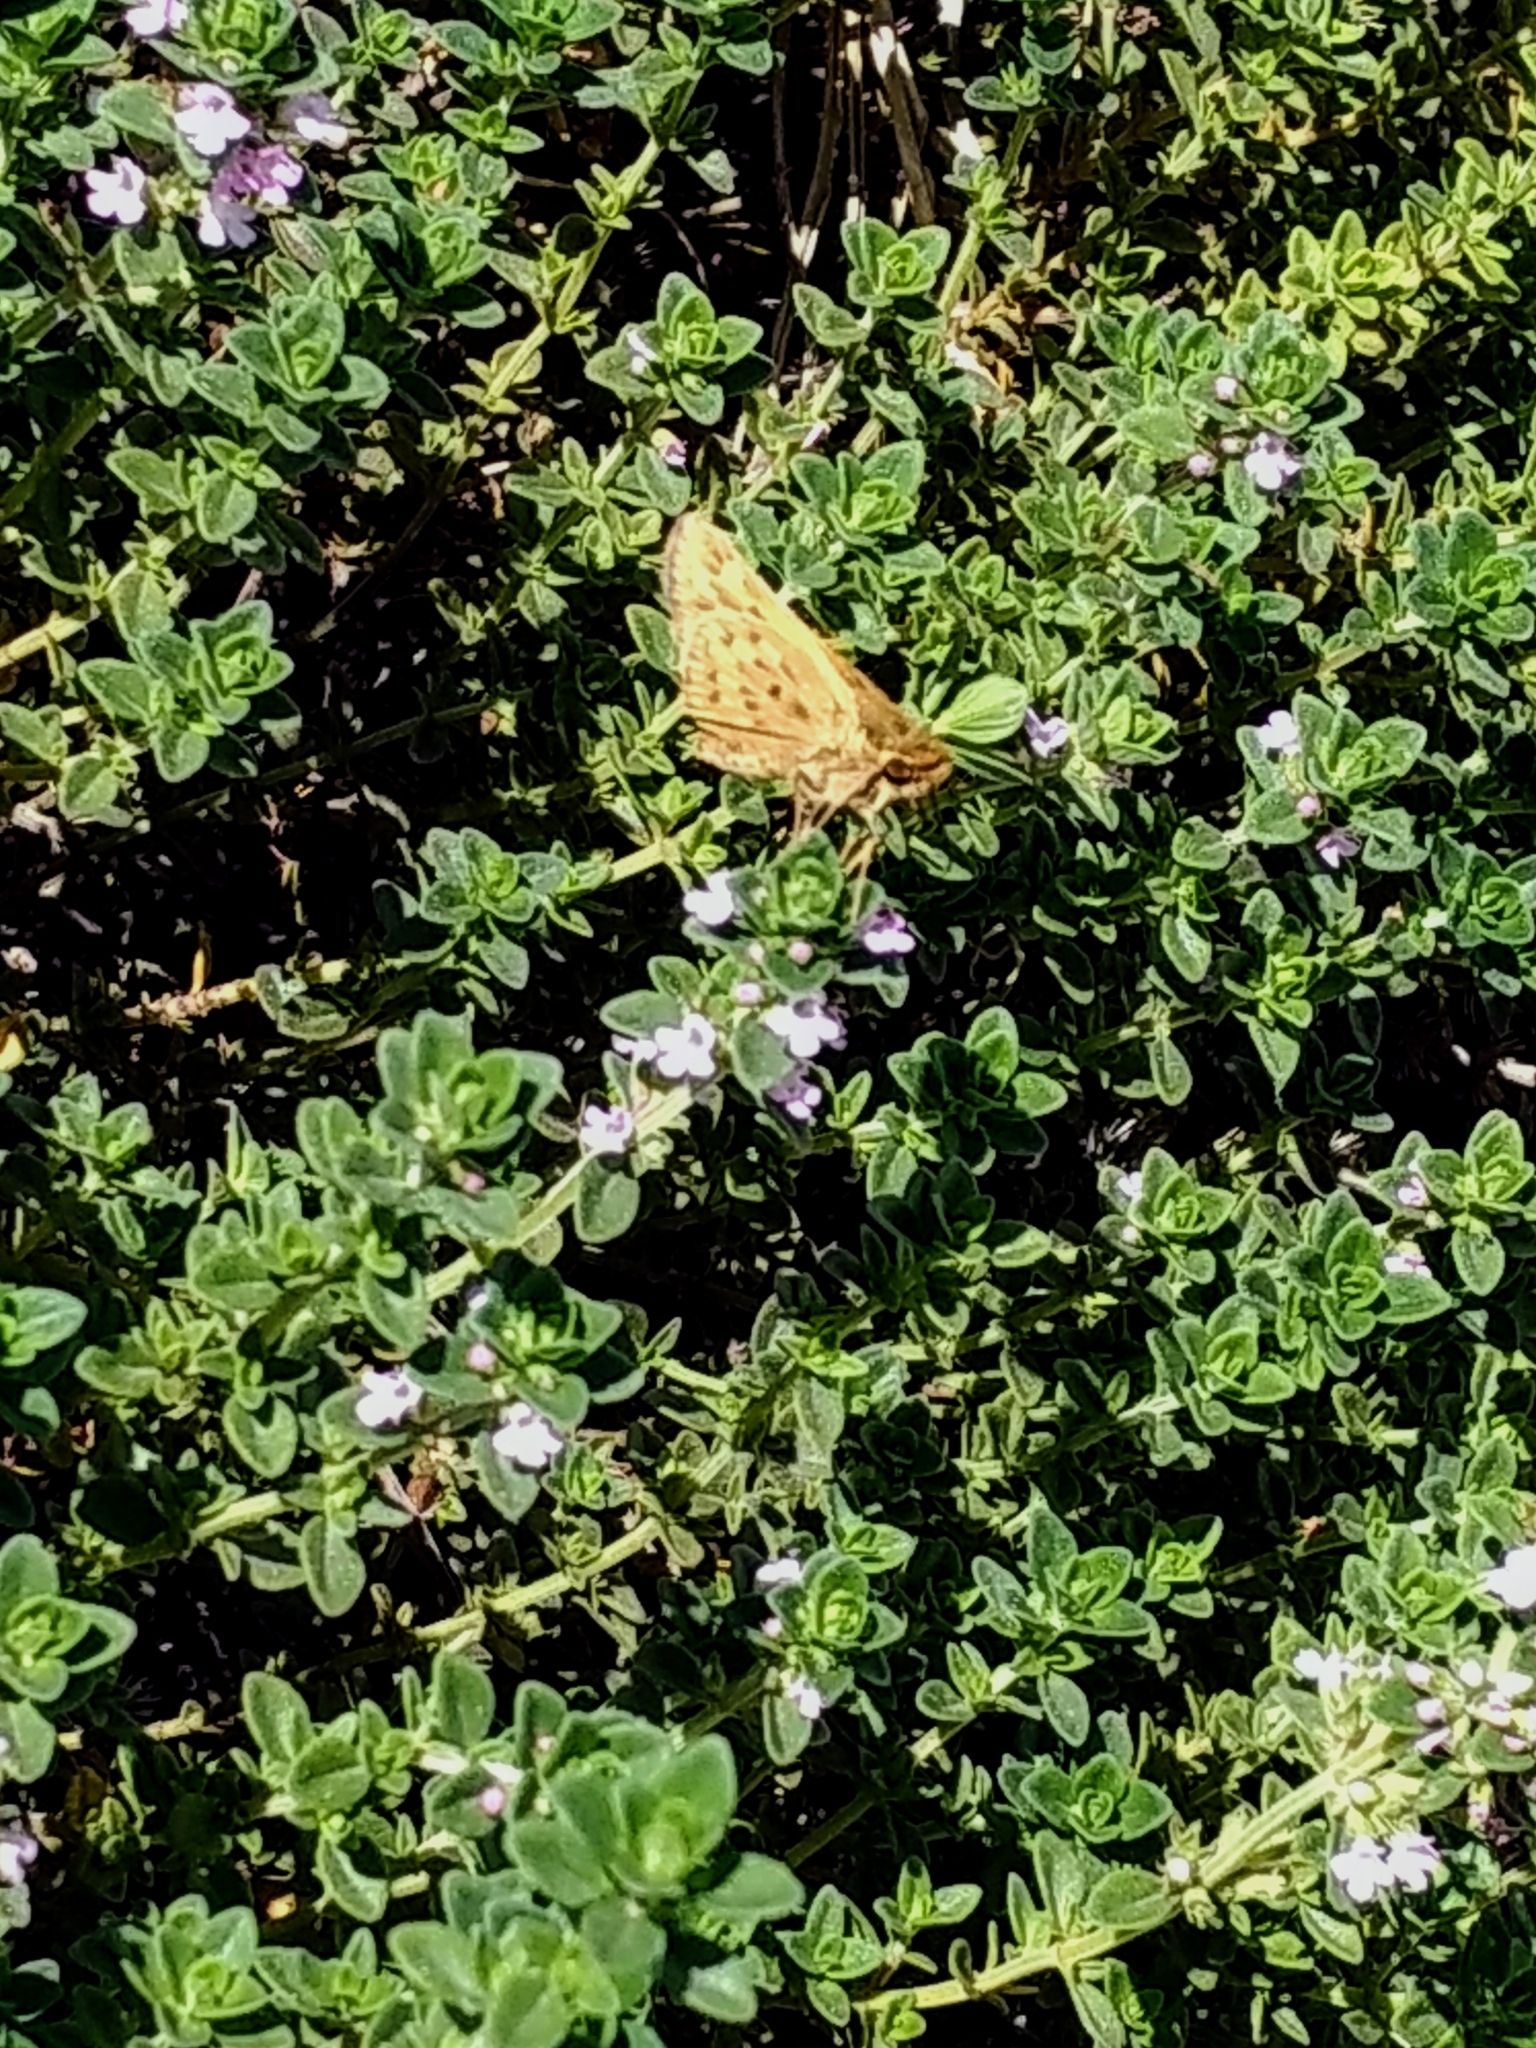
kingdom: Animalia
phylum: Arthropoda
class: Insecta
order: Lepidoptera
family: Hesperiidae
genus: Hylephila
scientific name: Hylephila phyleus
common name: Fiery skipper
